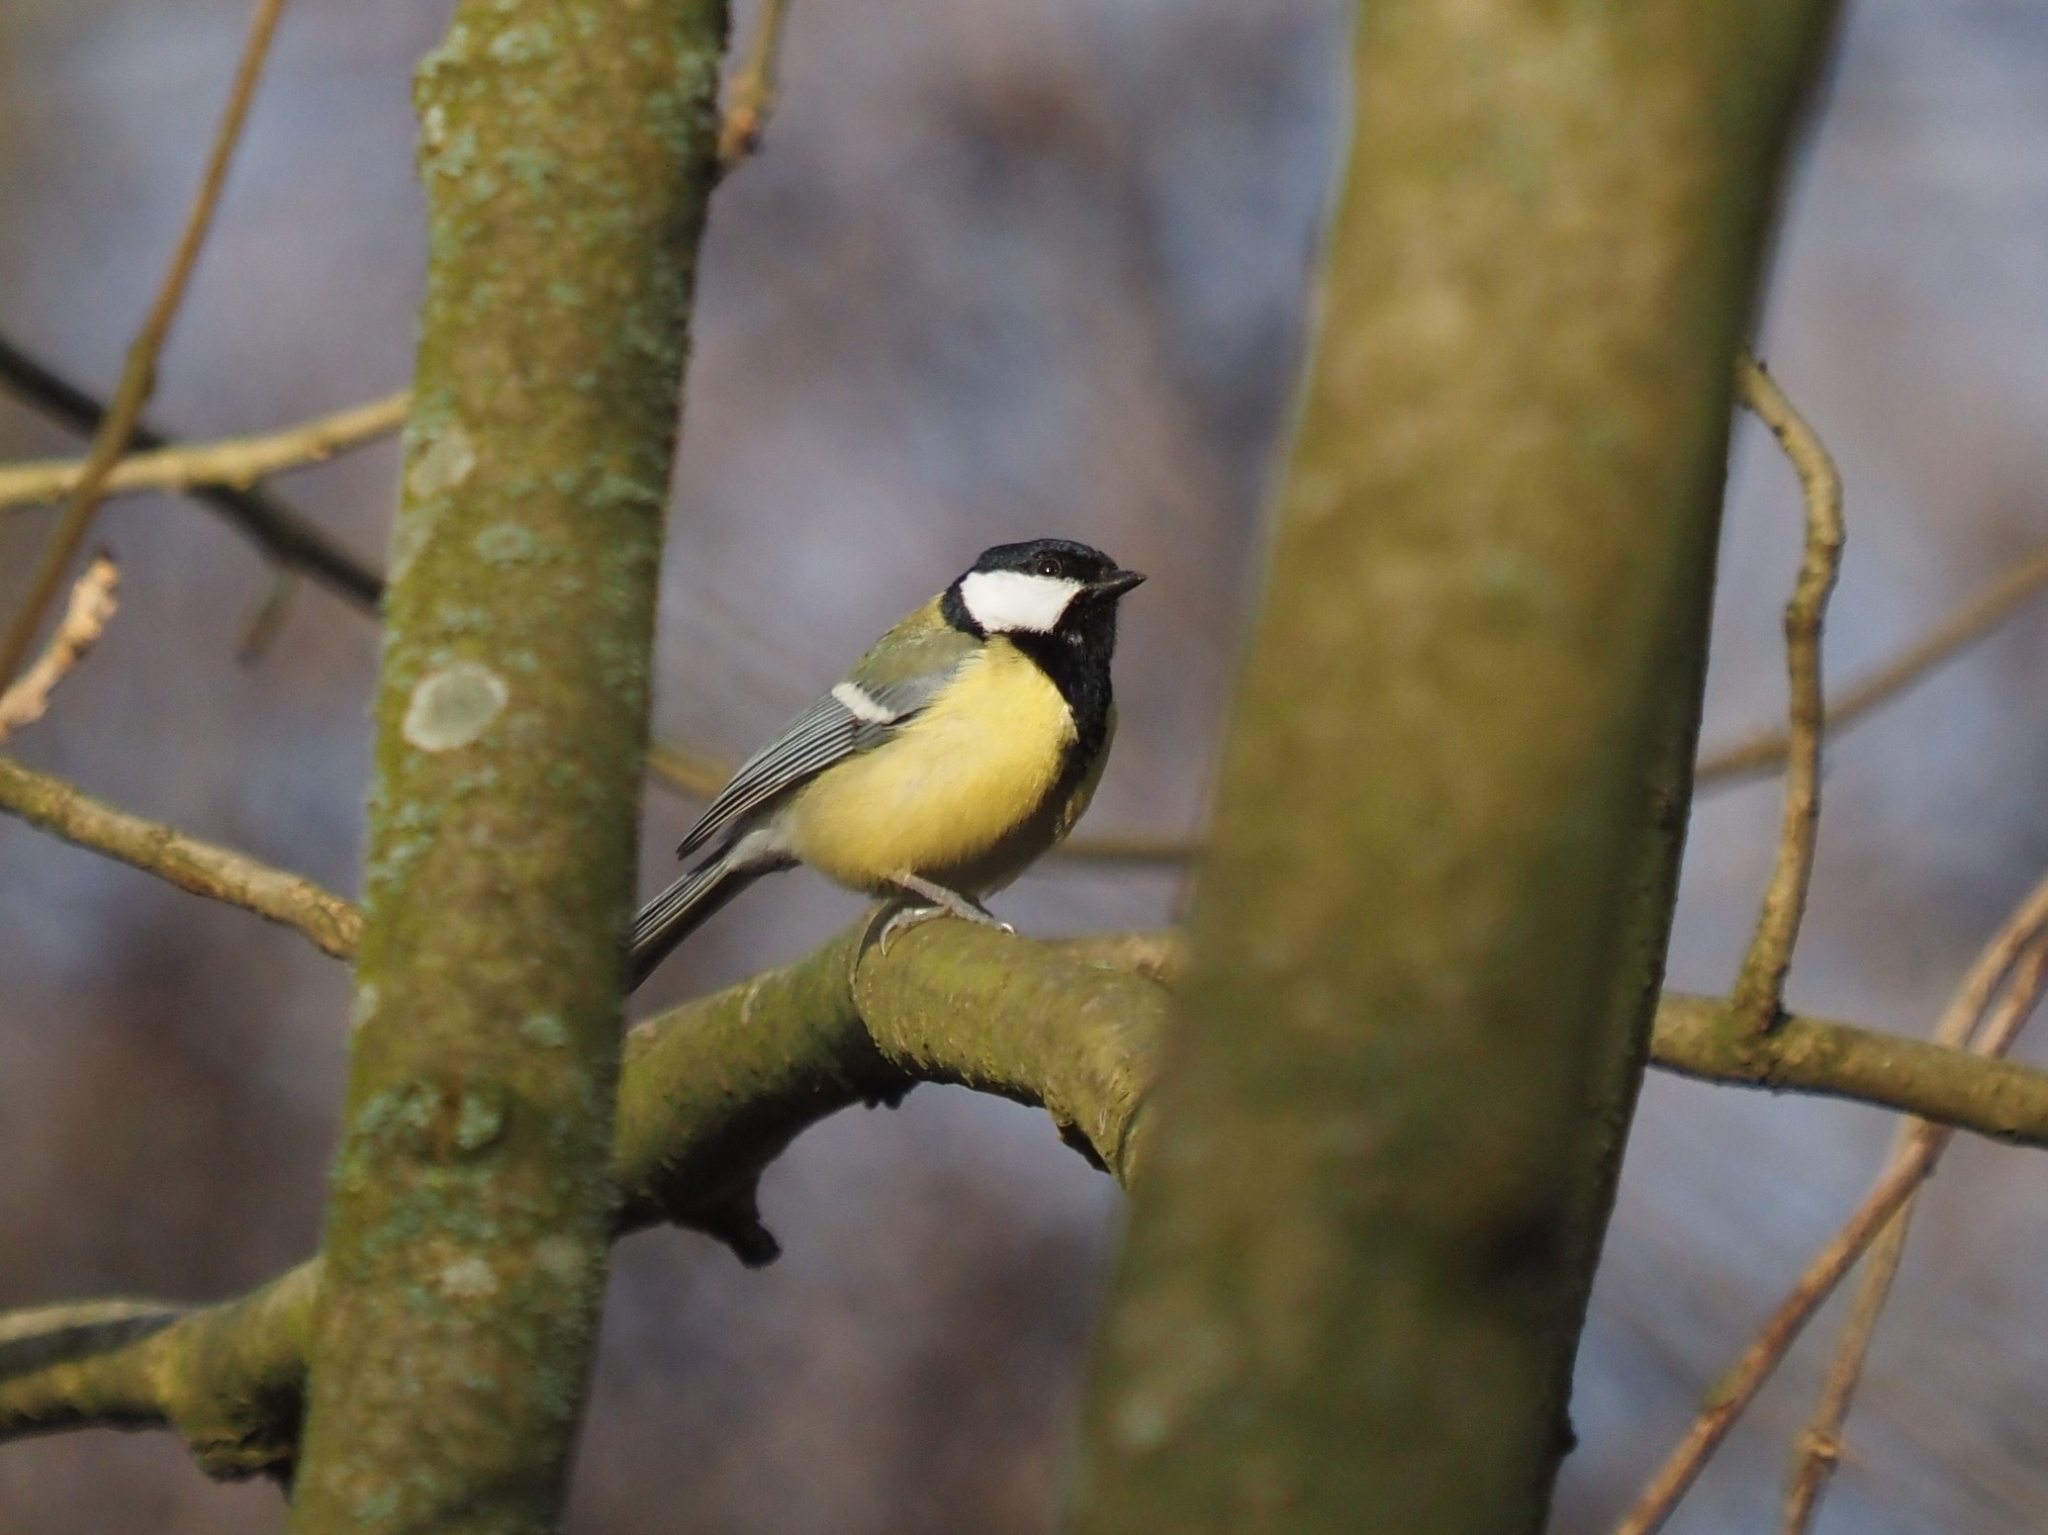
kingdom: Animalia
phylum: Chordata
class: Aves
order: Passeriformes
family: Paridae
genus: Parus
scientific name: Parus major
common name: Great tit
